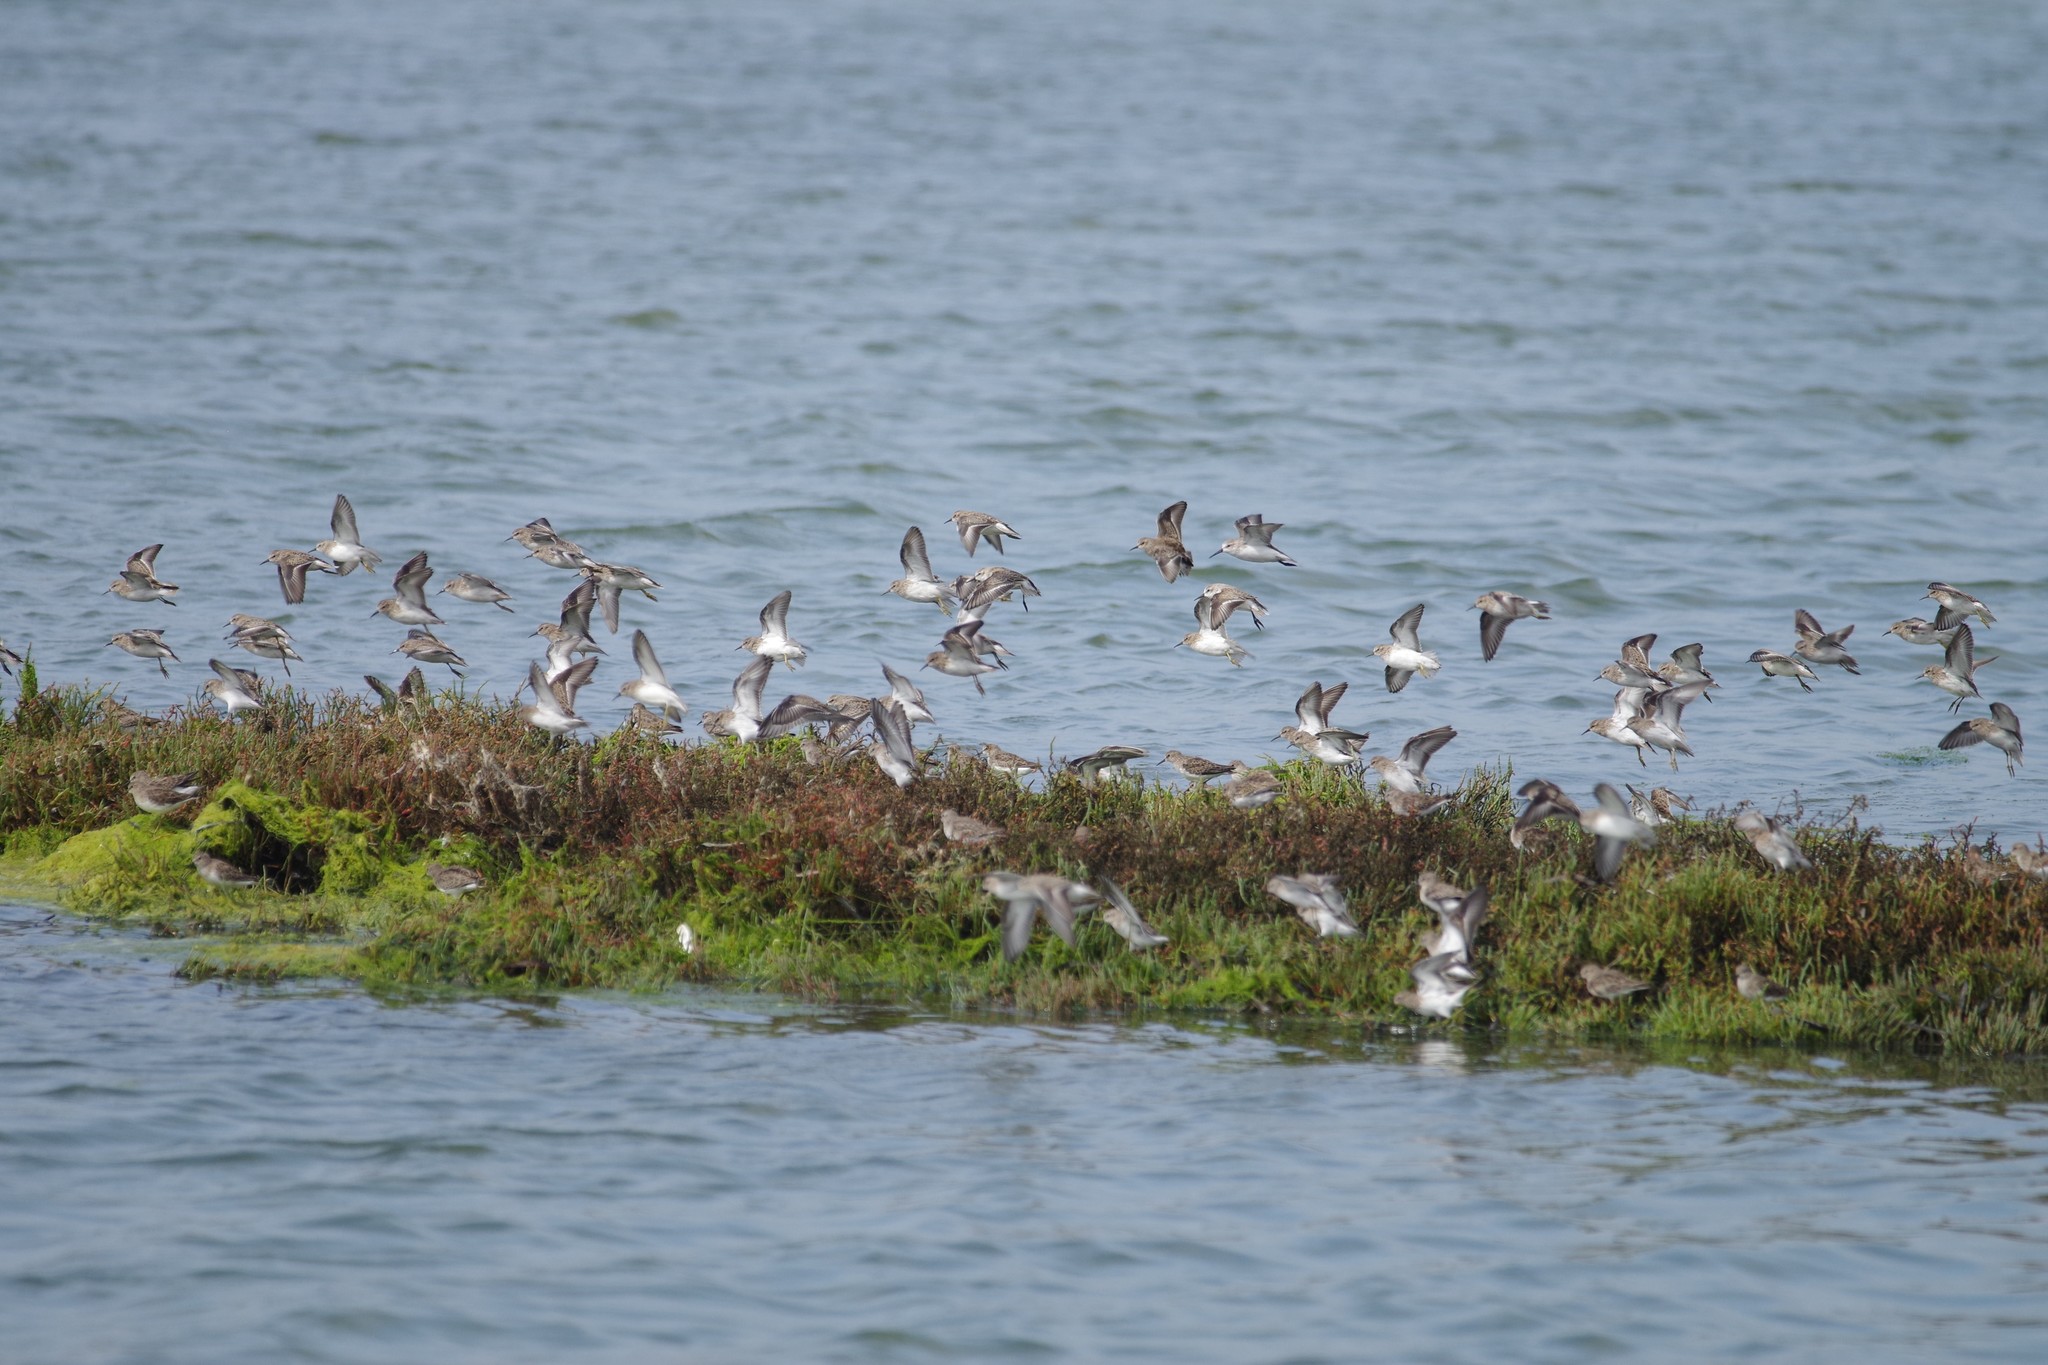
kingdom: Animalia
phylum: Chordata
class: Aves
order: Charadriiformes
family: Scolopacidae
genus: Calidris
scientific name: Calidris minutilla
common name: Least sandpiper
